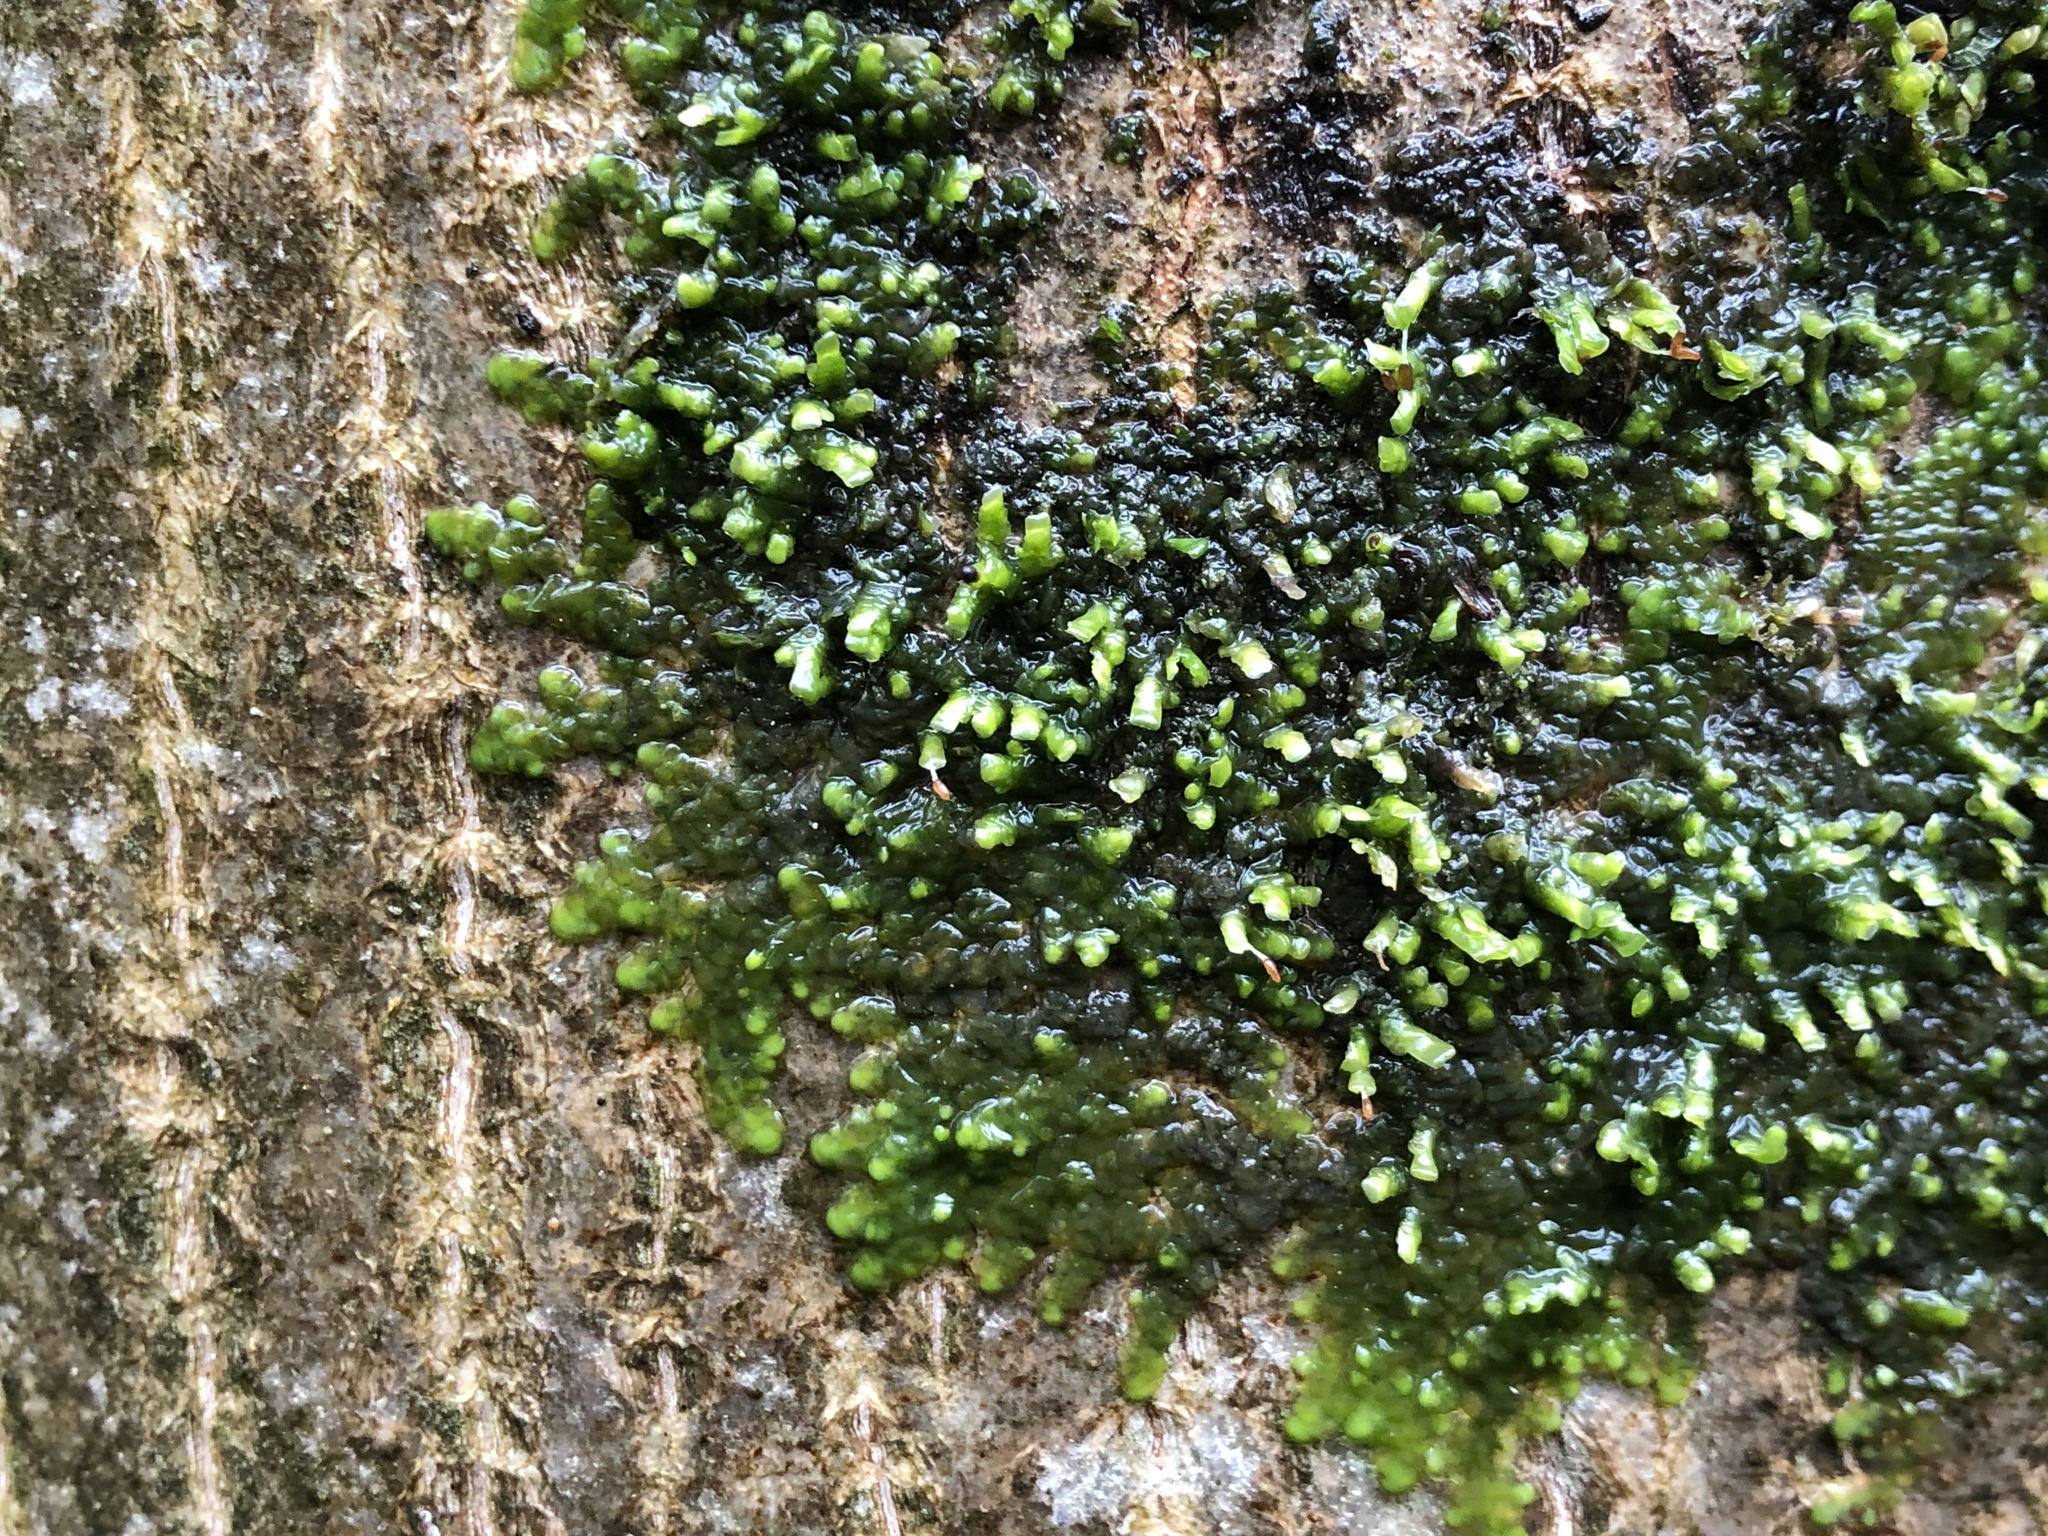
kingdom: Plantae
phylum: Marchantiophyta
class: Jungermanniopsida
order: Porellales
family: Radulaceae
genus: Radula
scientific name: Radula complanata
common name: Flat-leaved scalewort
